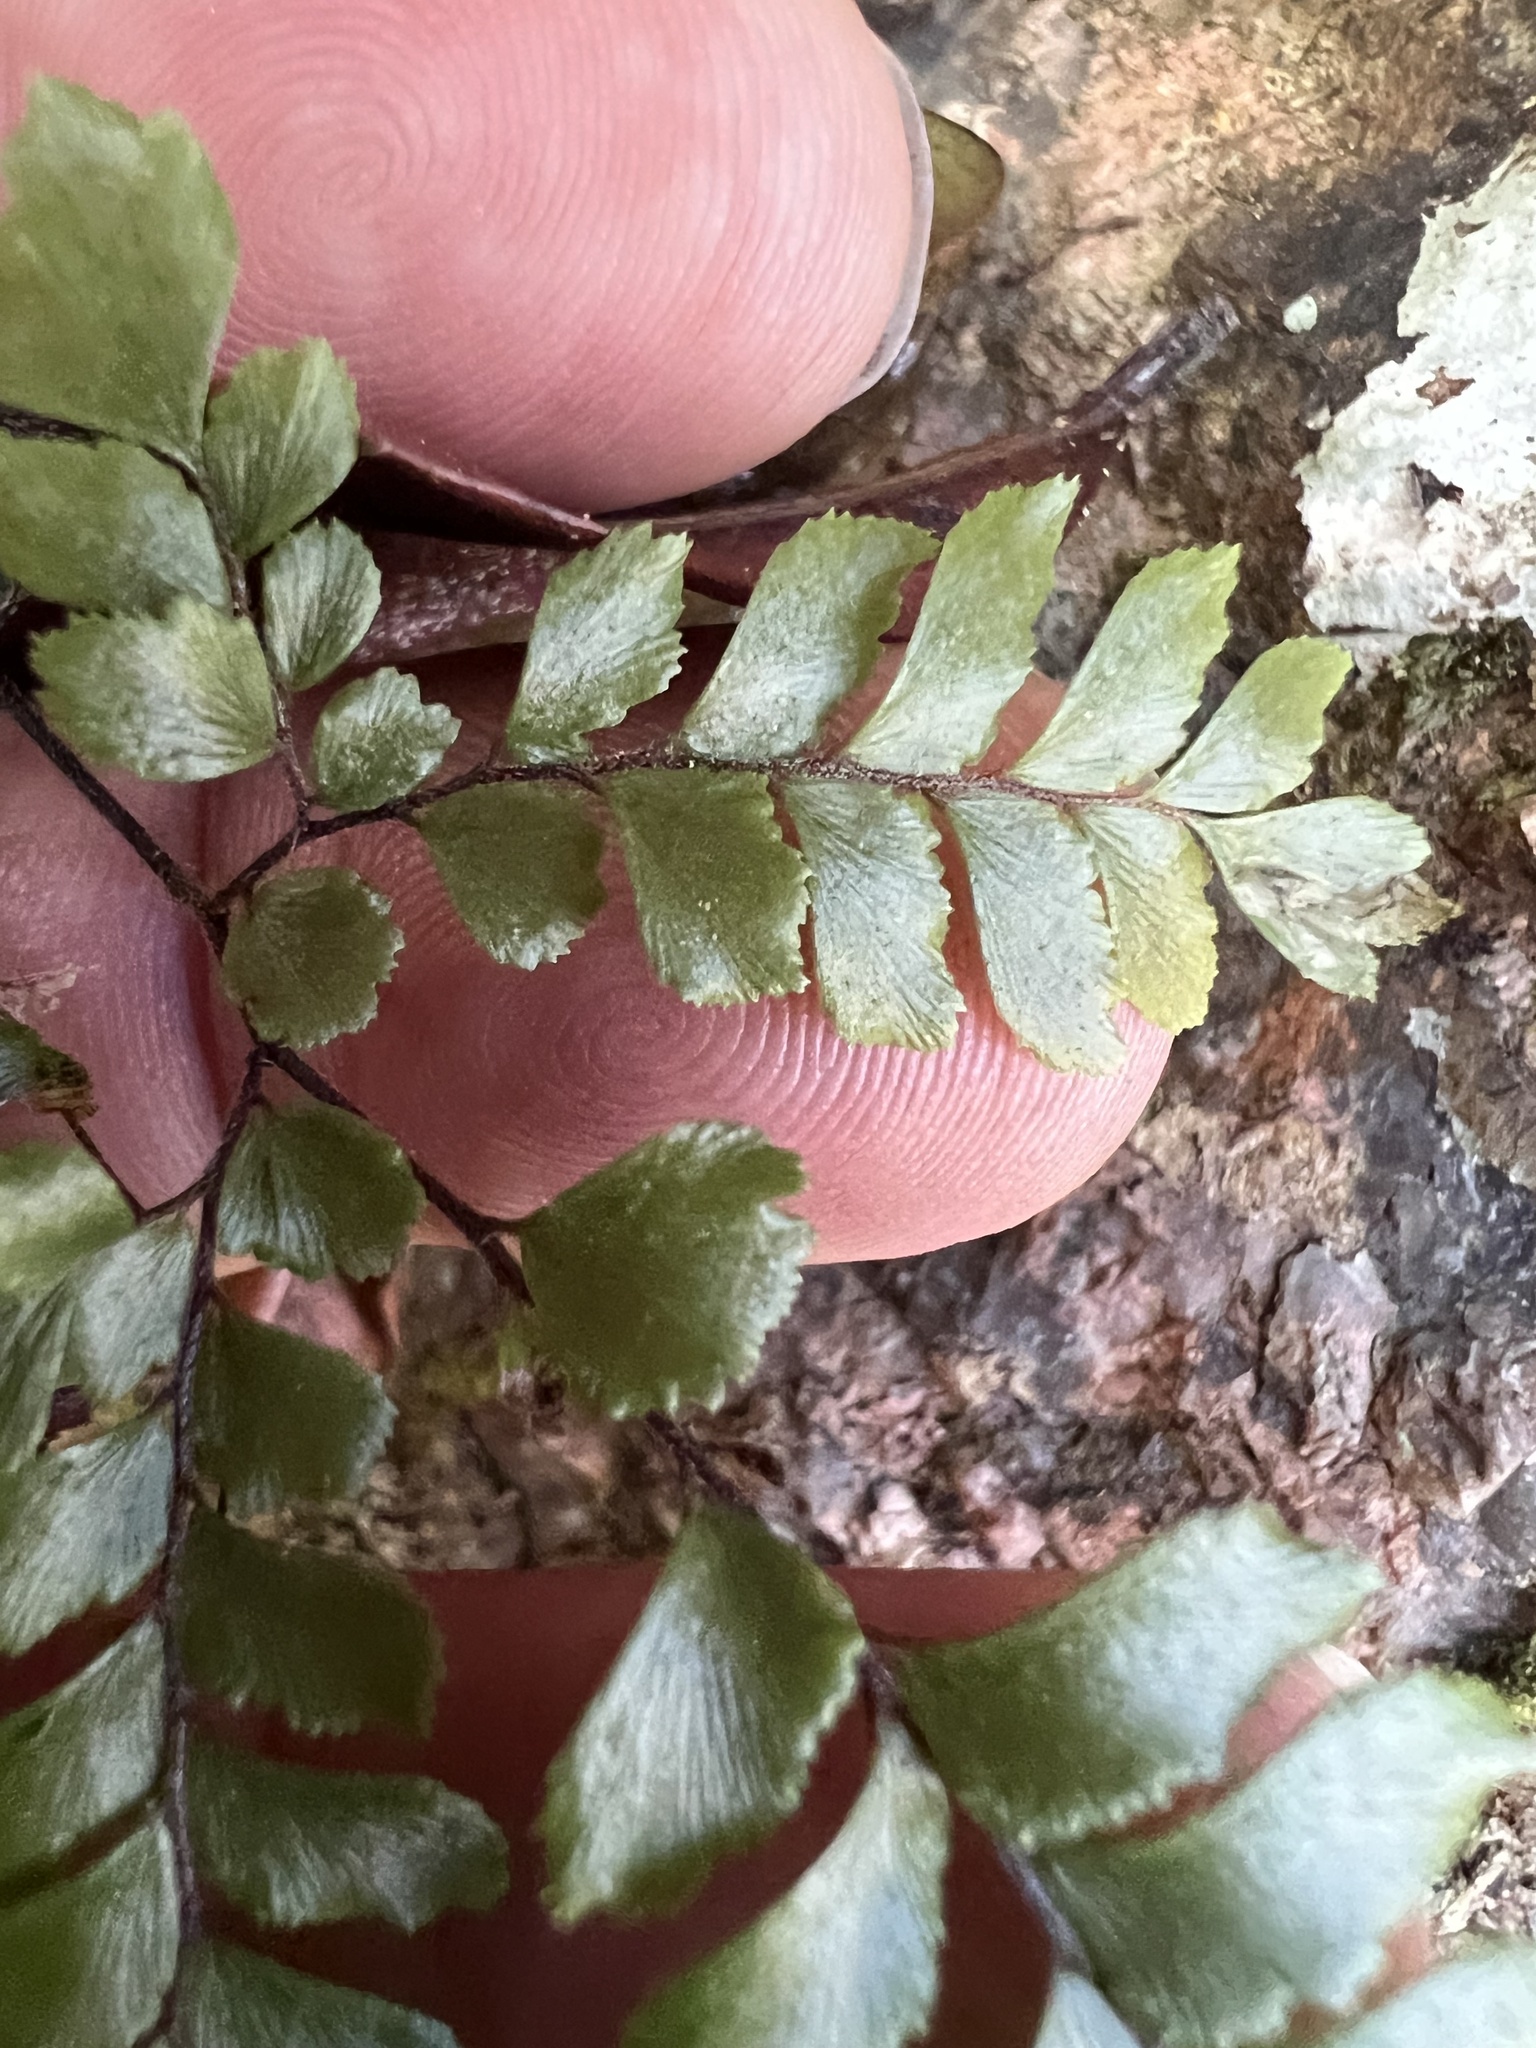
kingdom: Plantae
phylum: Tracheophyta
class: Polypodiopsida
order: Polypodiales
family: Pteridaceae
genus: Adiantum
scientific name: Adiantum silvaticum
